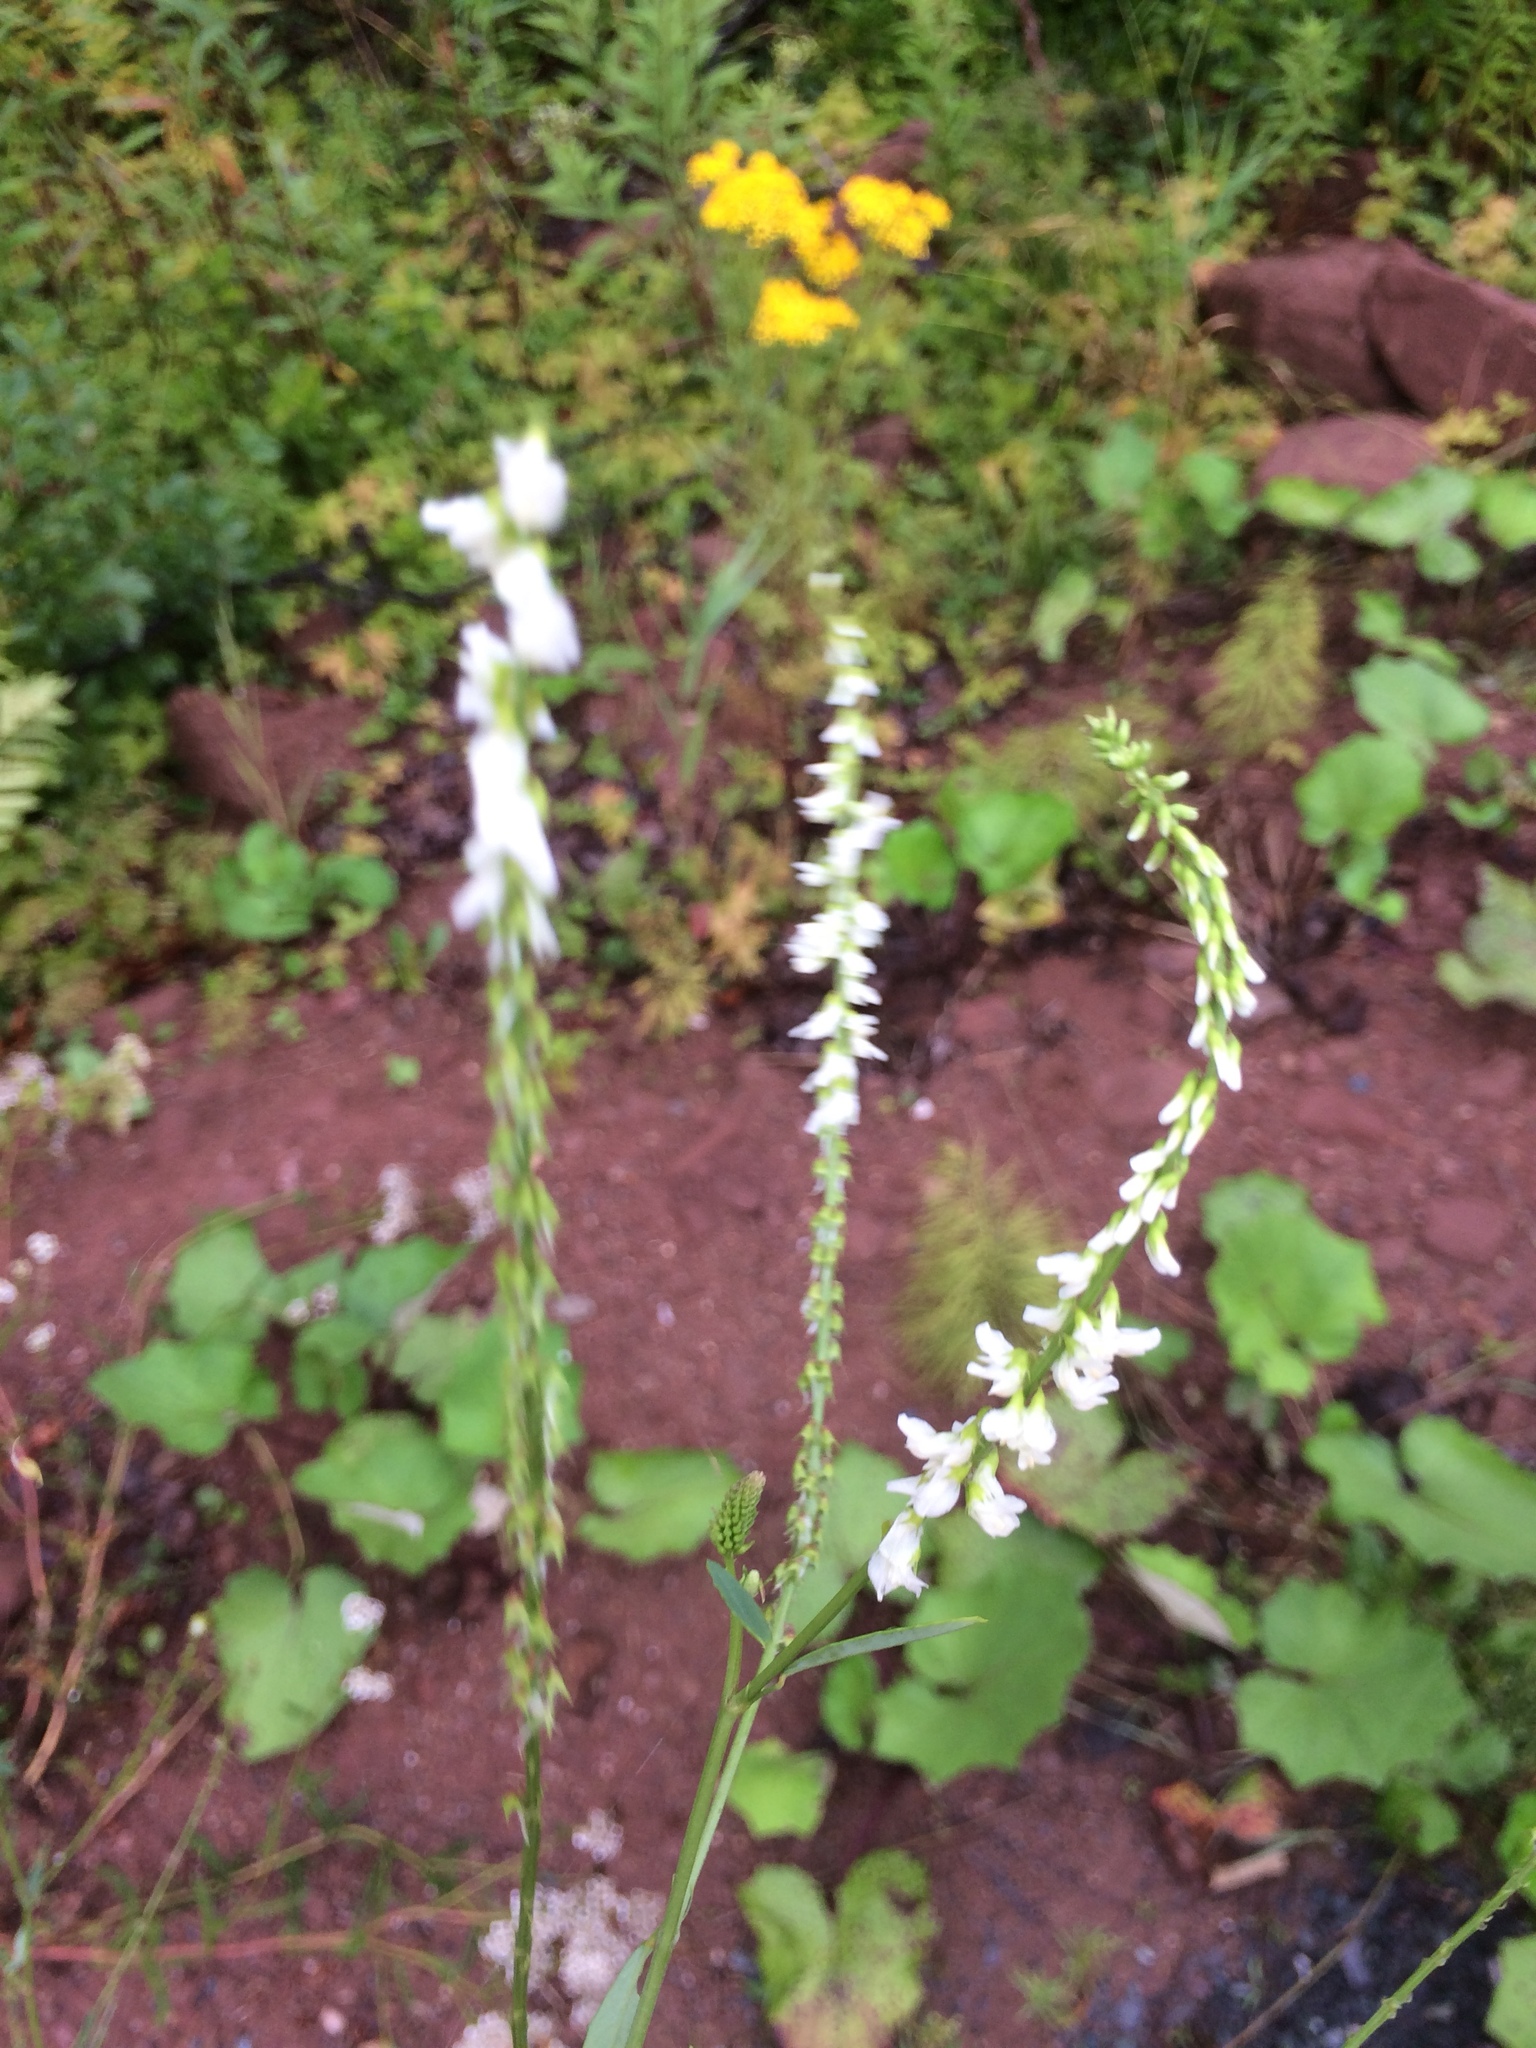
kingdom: Plantae
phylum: Tracheophyta
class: Magnoliopsida
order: Fabales
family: Fabaceae
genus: Melilotus
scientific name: Melilotus albus
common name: White melilot
